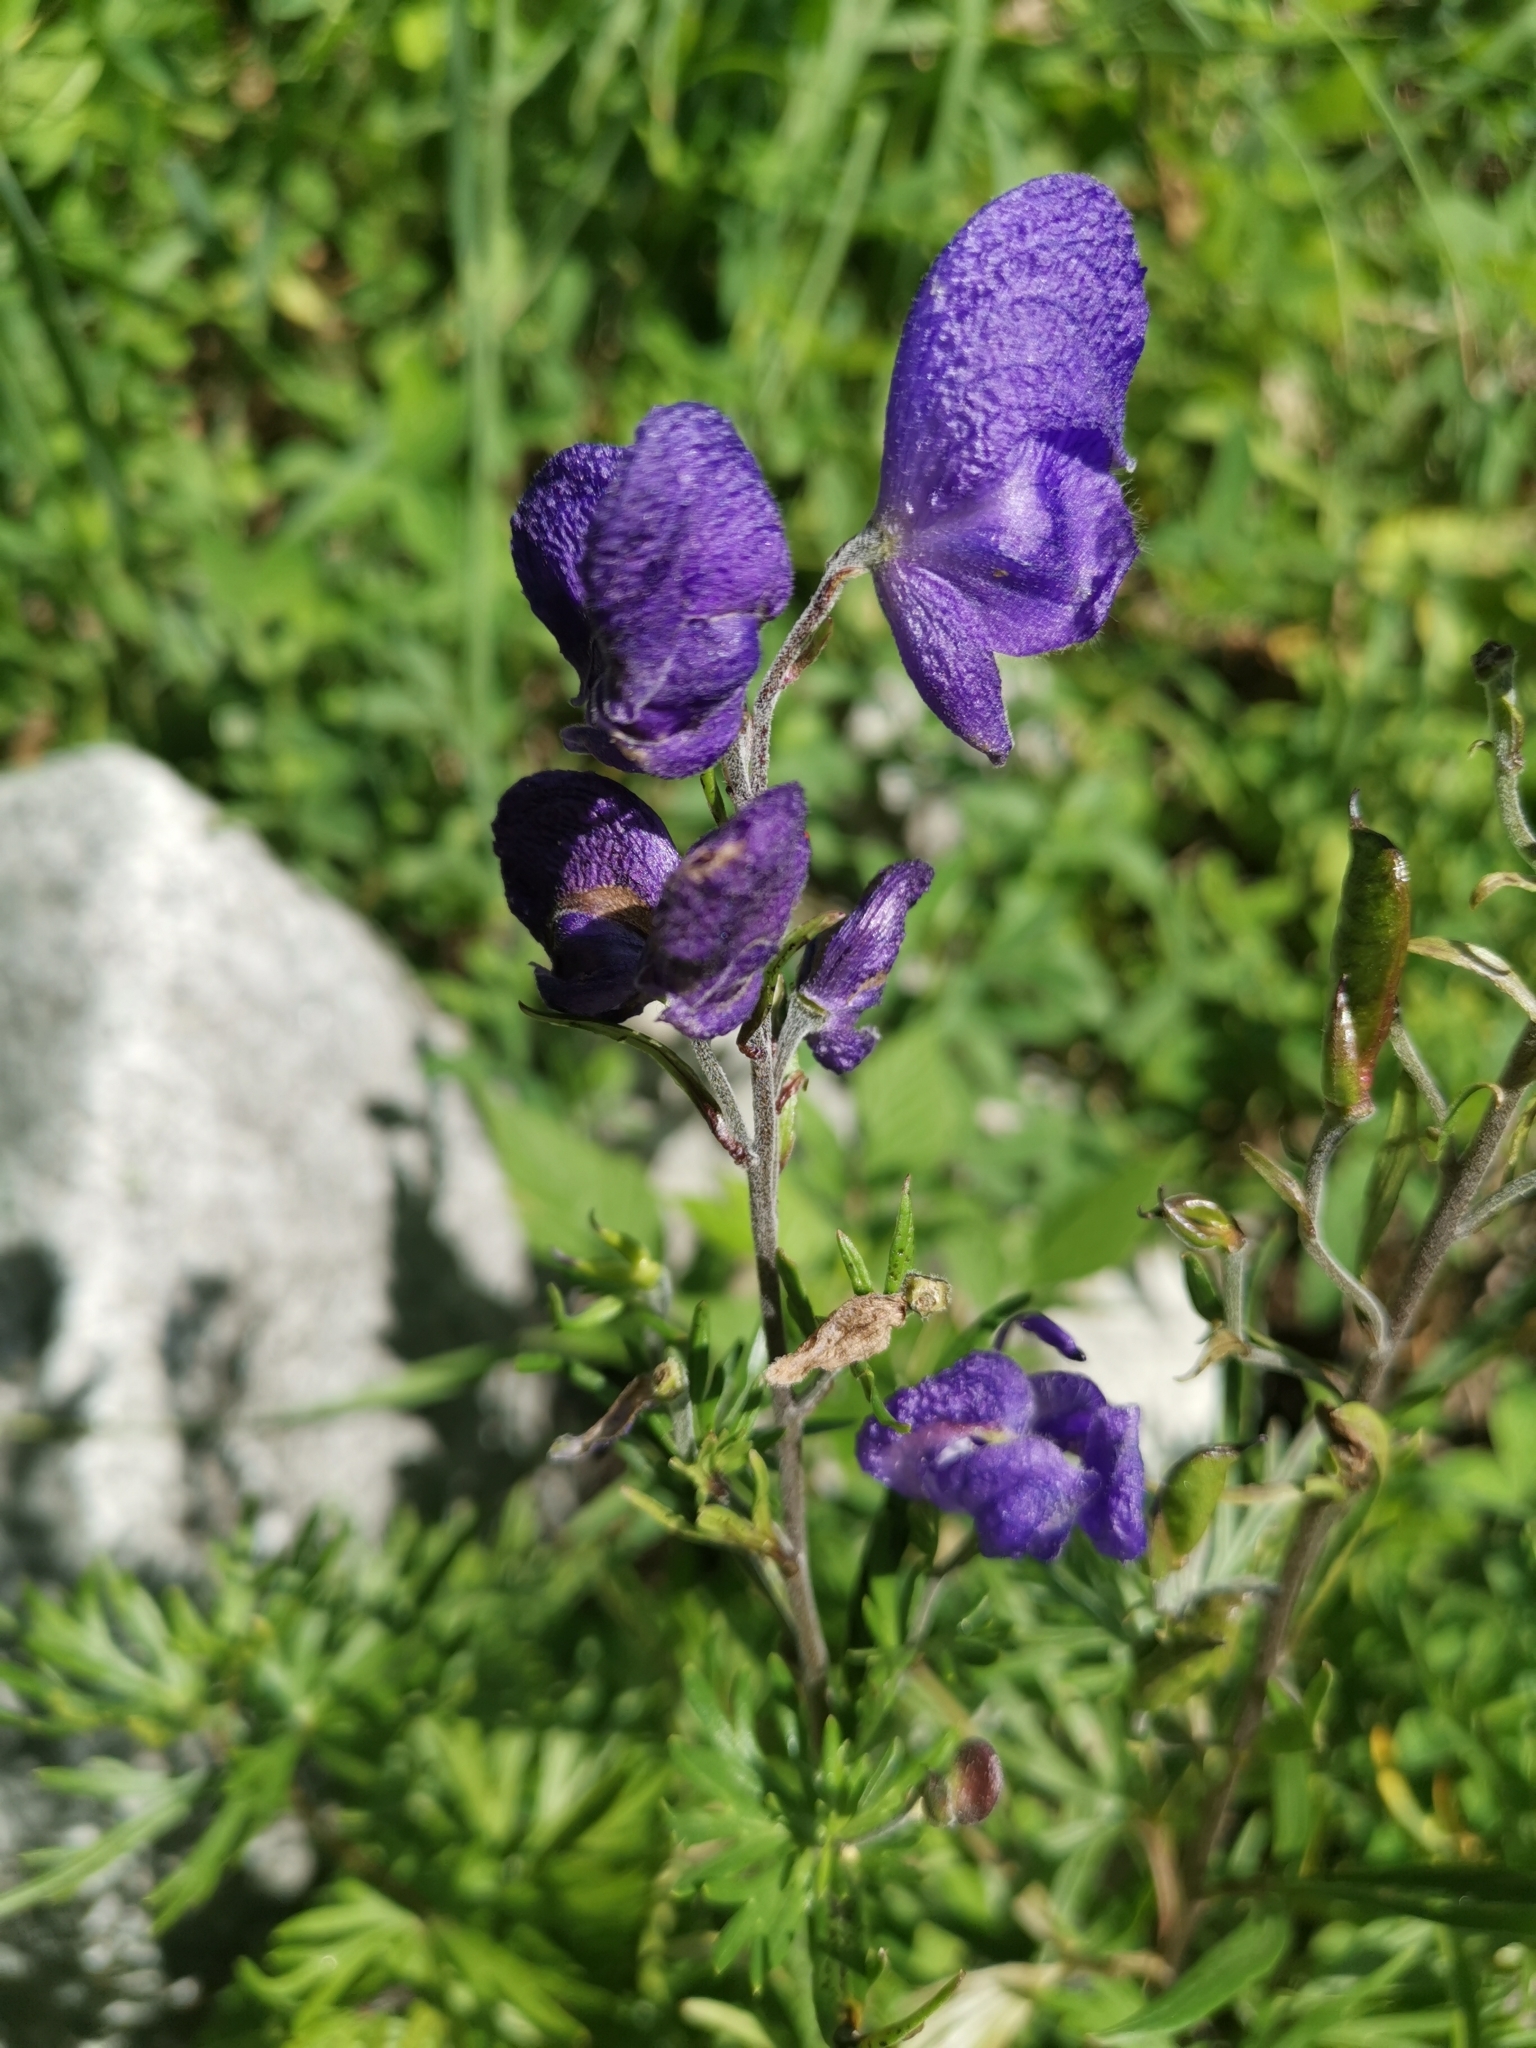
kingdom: Plantae
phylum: Tracheophyta
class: Magnoliopsida
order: Ranunculales
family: Ranunculaceae
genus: Aconitum
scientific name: Aconitum napellus
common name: Garden monkshood
